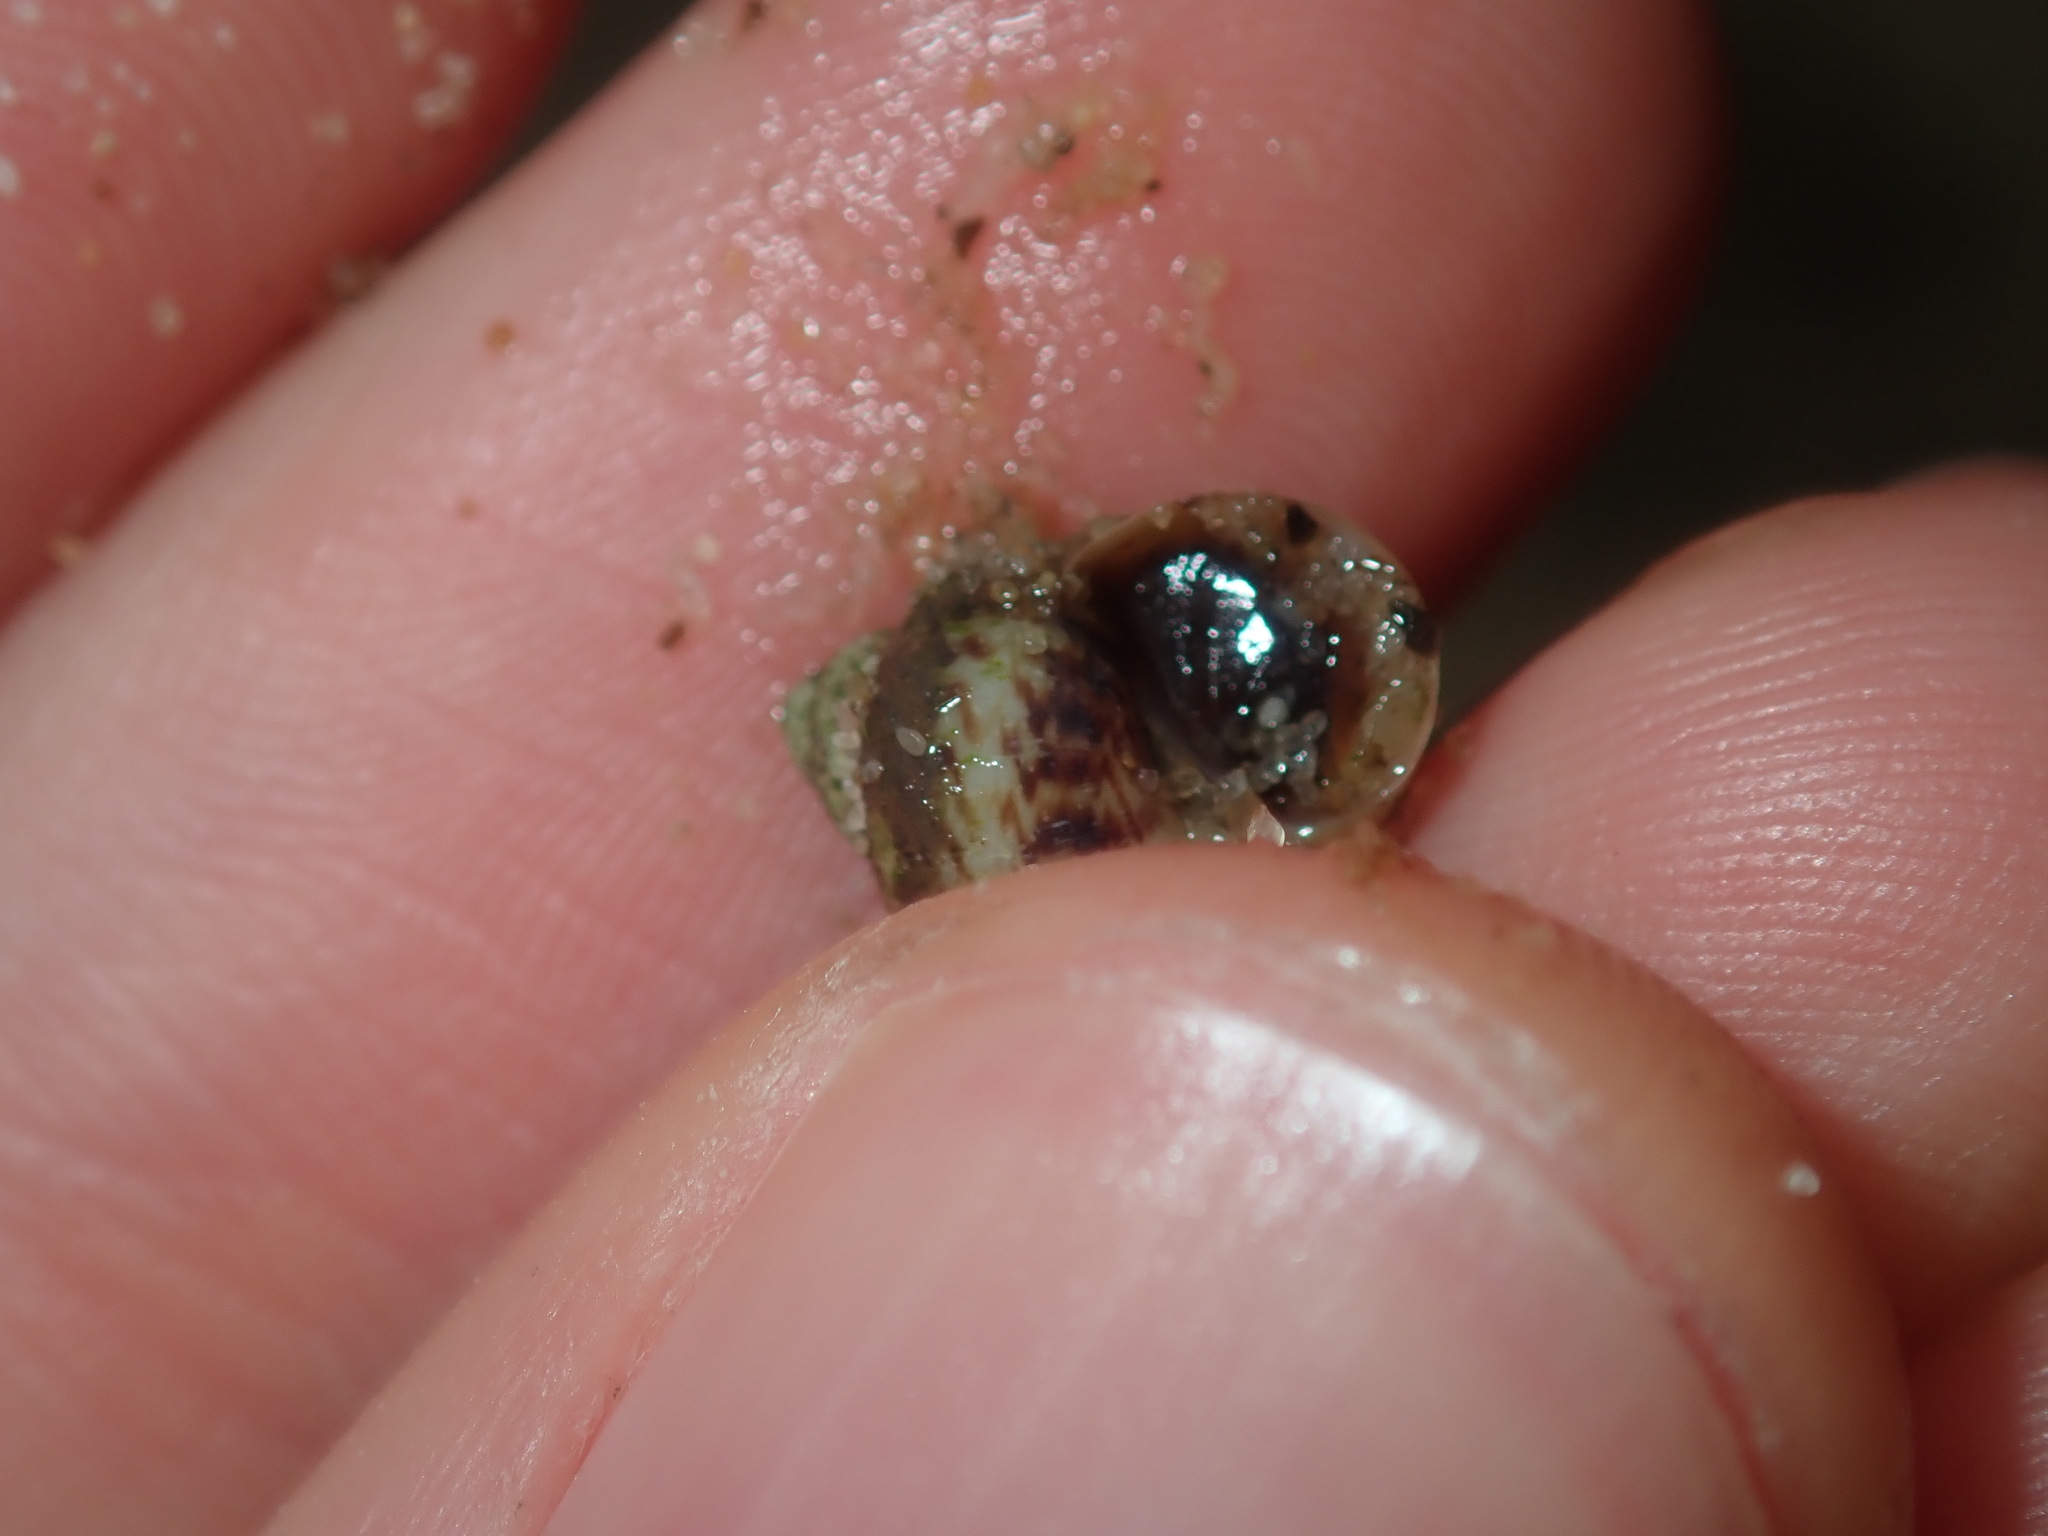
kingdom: Animalia
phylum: Mollusca
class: Gastropoda
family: Amphibolidae
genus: Phallomedusa
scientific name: Phallomedusa solida
